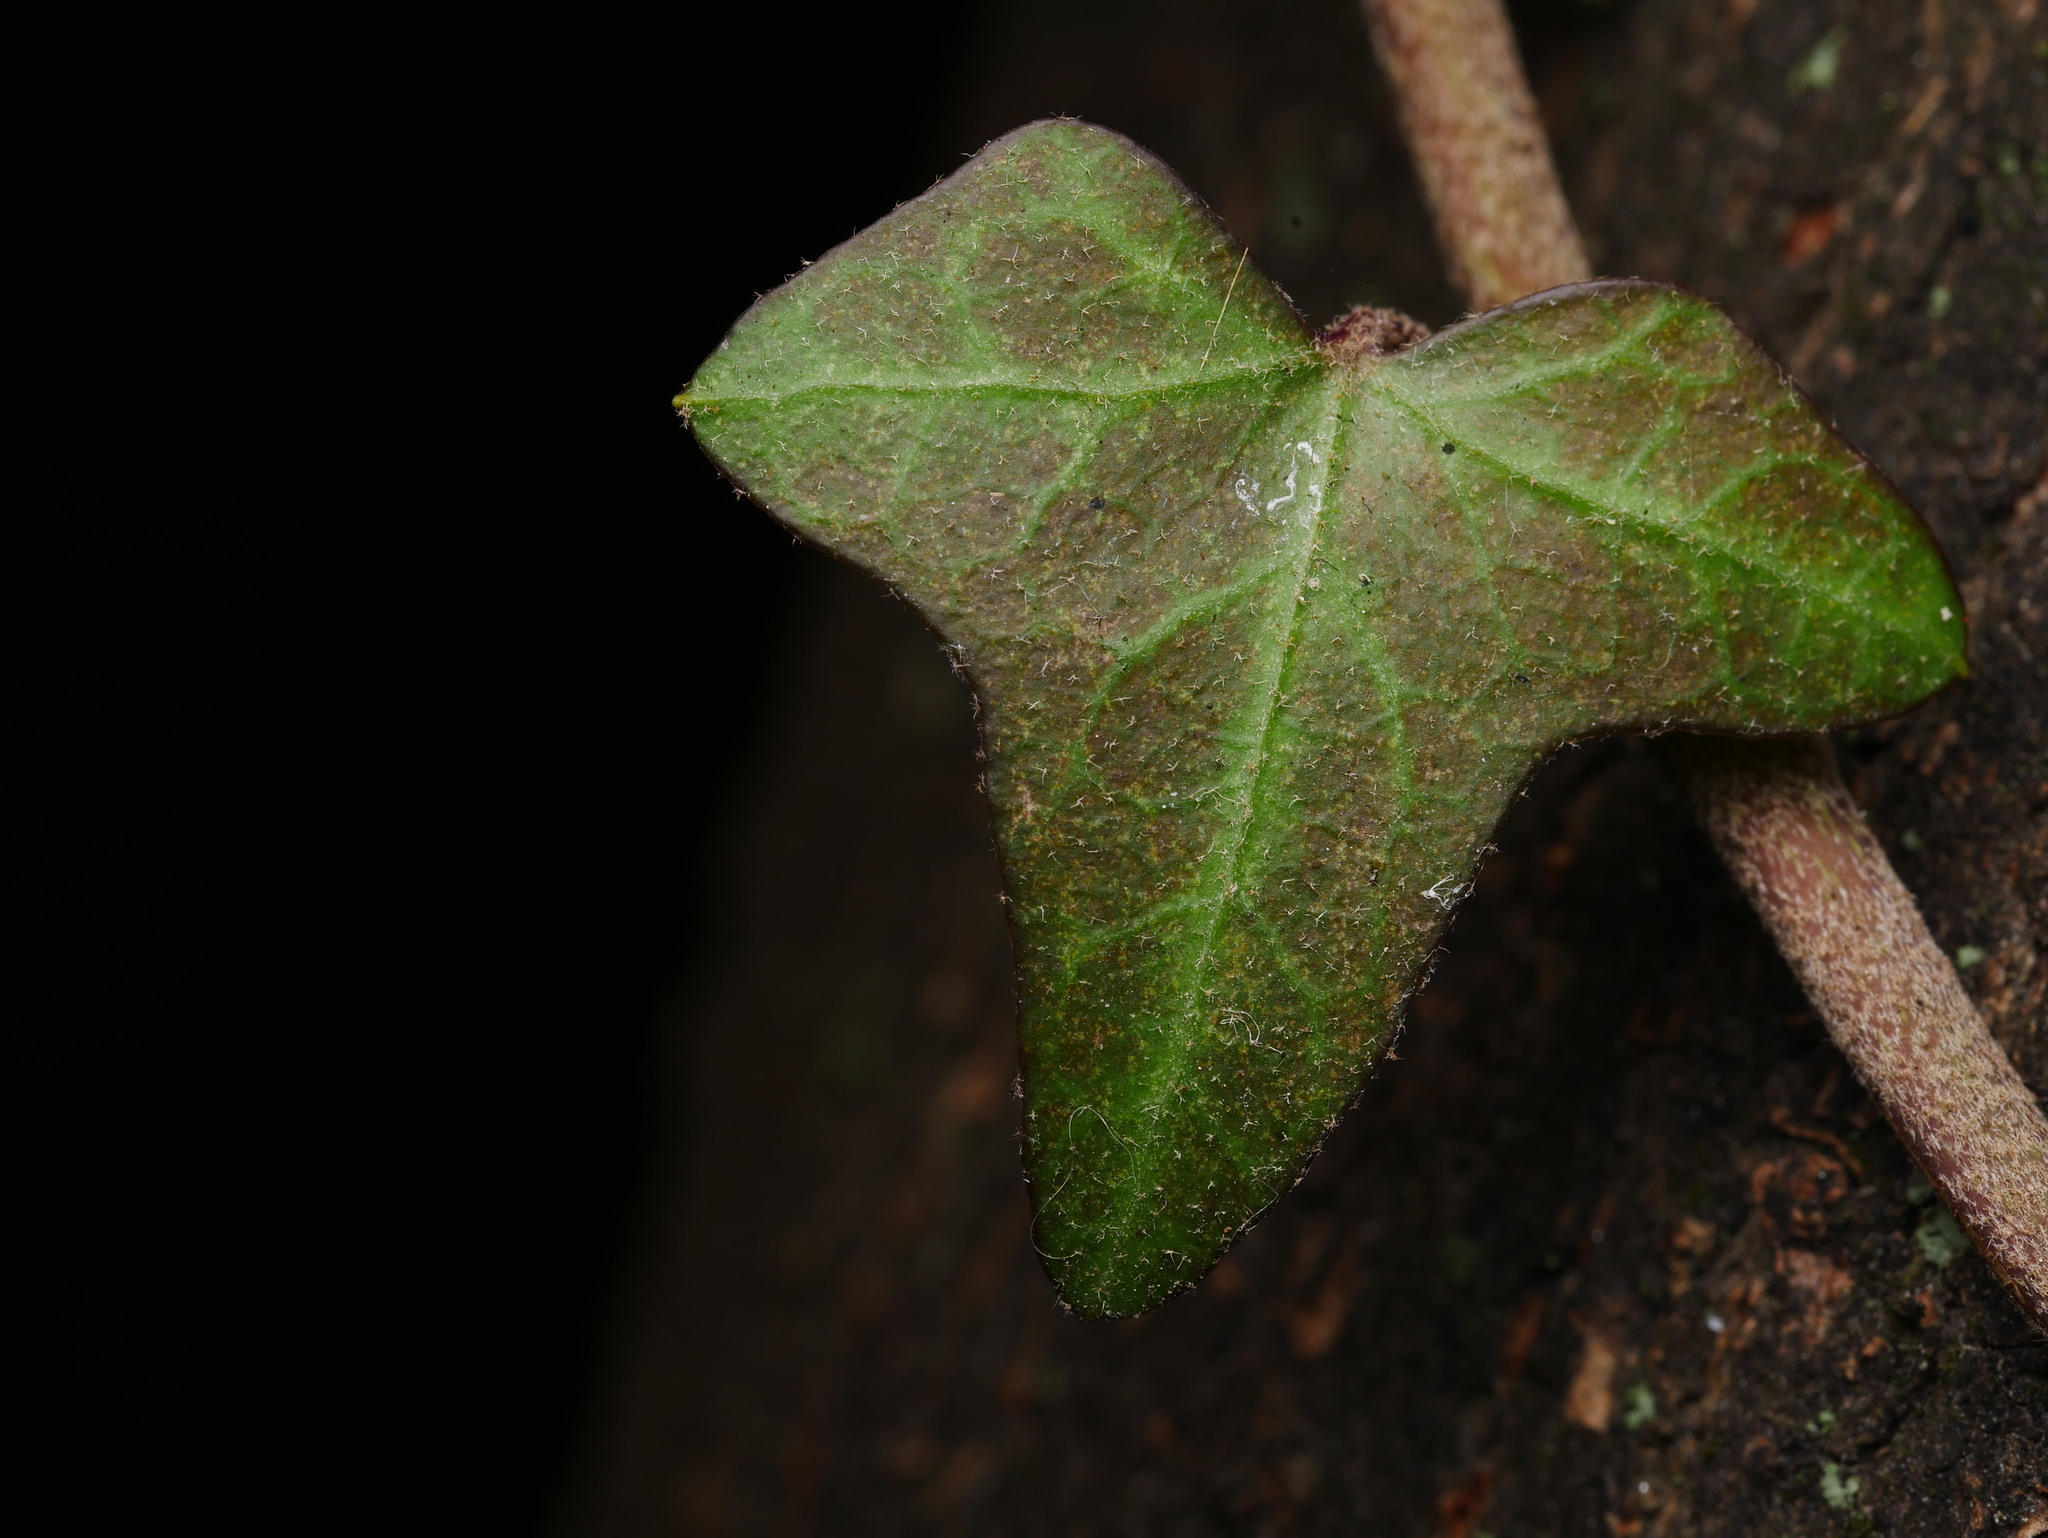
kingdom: Plantae
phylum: Tracheophyta
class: Magnoliopsida
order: Apiales
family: Araliaceae
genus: Hedera
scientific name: Hedera helix
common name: Ivy
